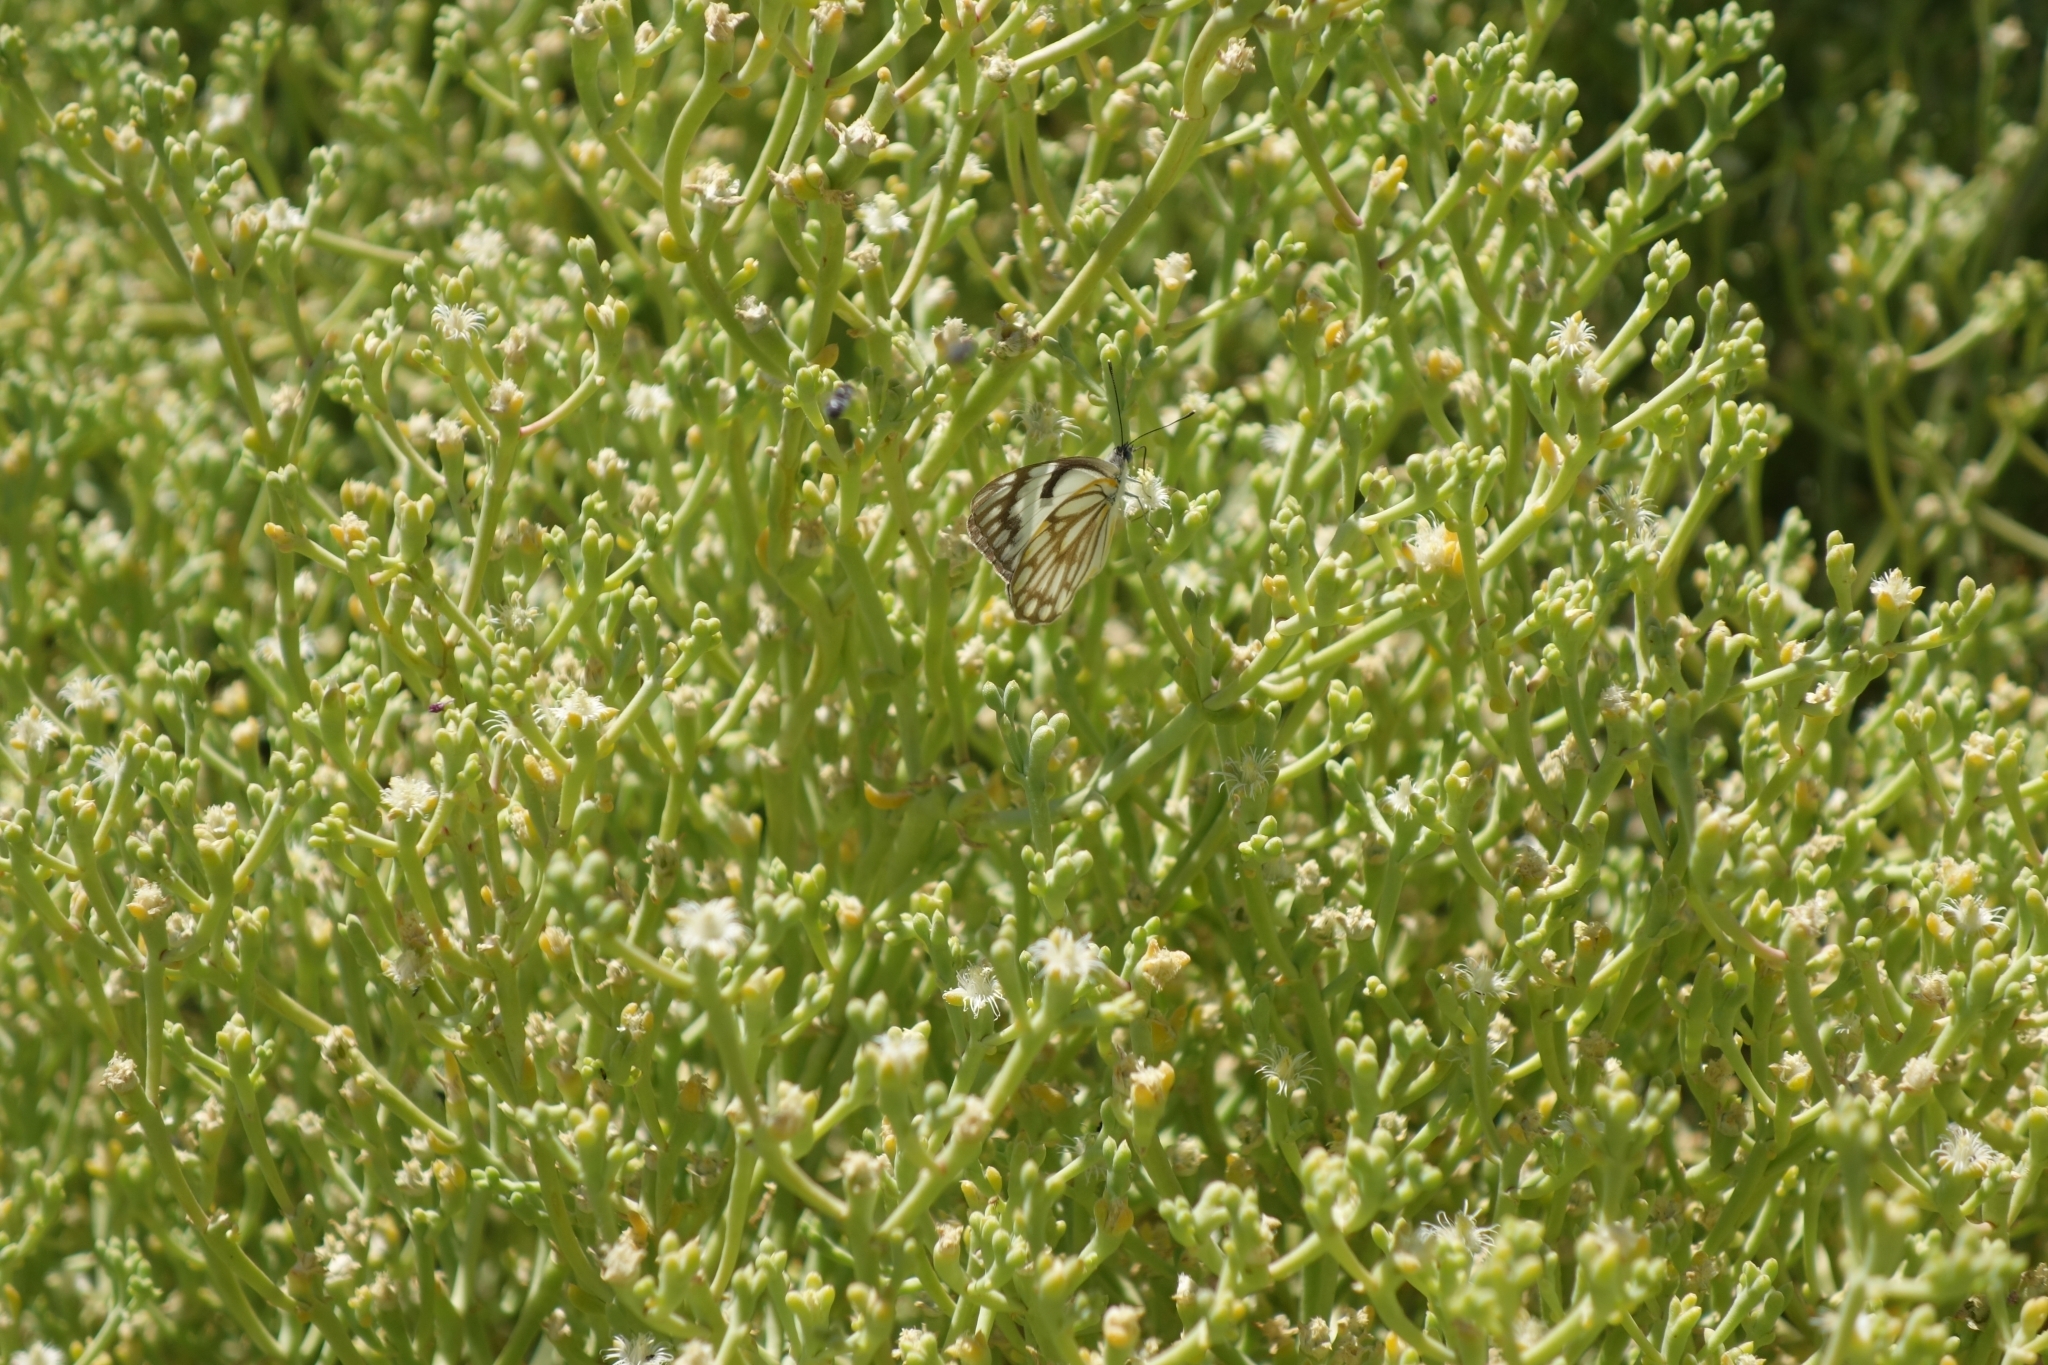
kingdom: Animalia
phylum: Arthropoda
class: Insecta
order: Lepidoptera
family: Pieridae
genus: Belenois
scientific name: Belenois aurota
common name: Brown-veined white
